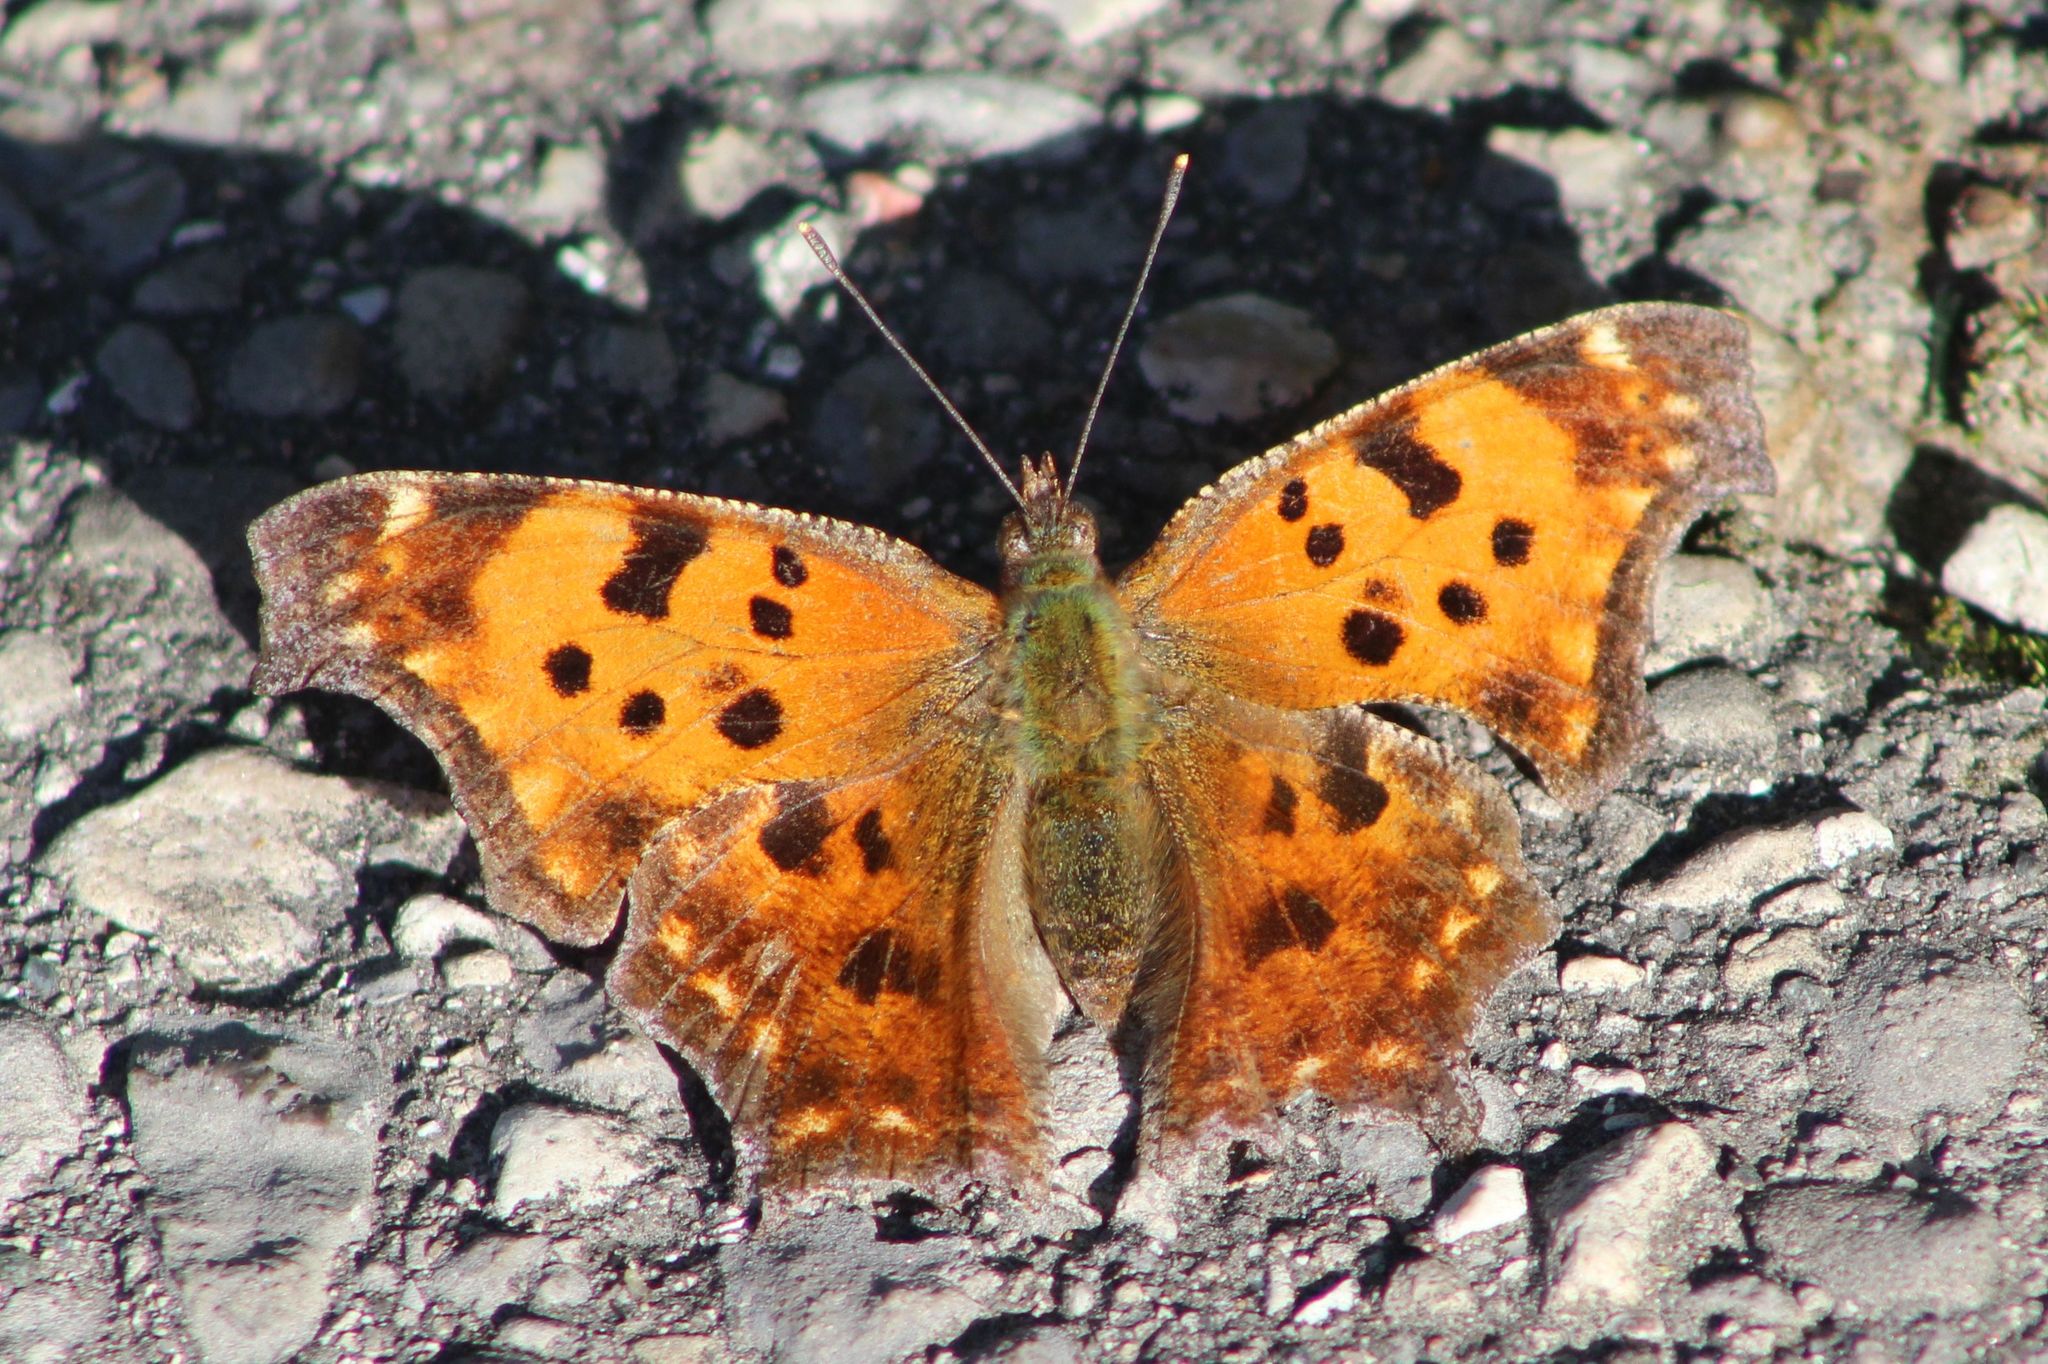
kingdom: Animalia
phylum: Arthropoda
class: Insecta
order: Lepidoptera
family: Nymphalidae
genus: Polygonia
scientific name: Polygonia comma
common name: Eastern comma
